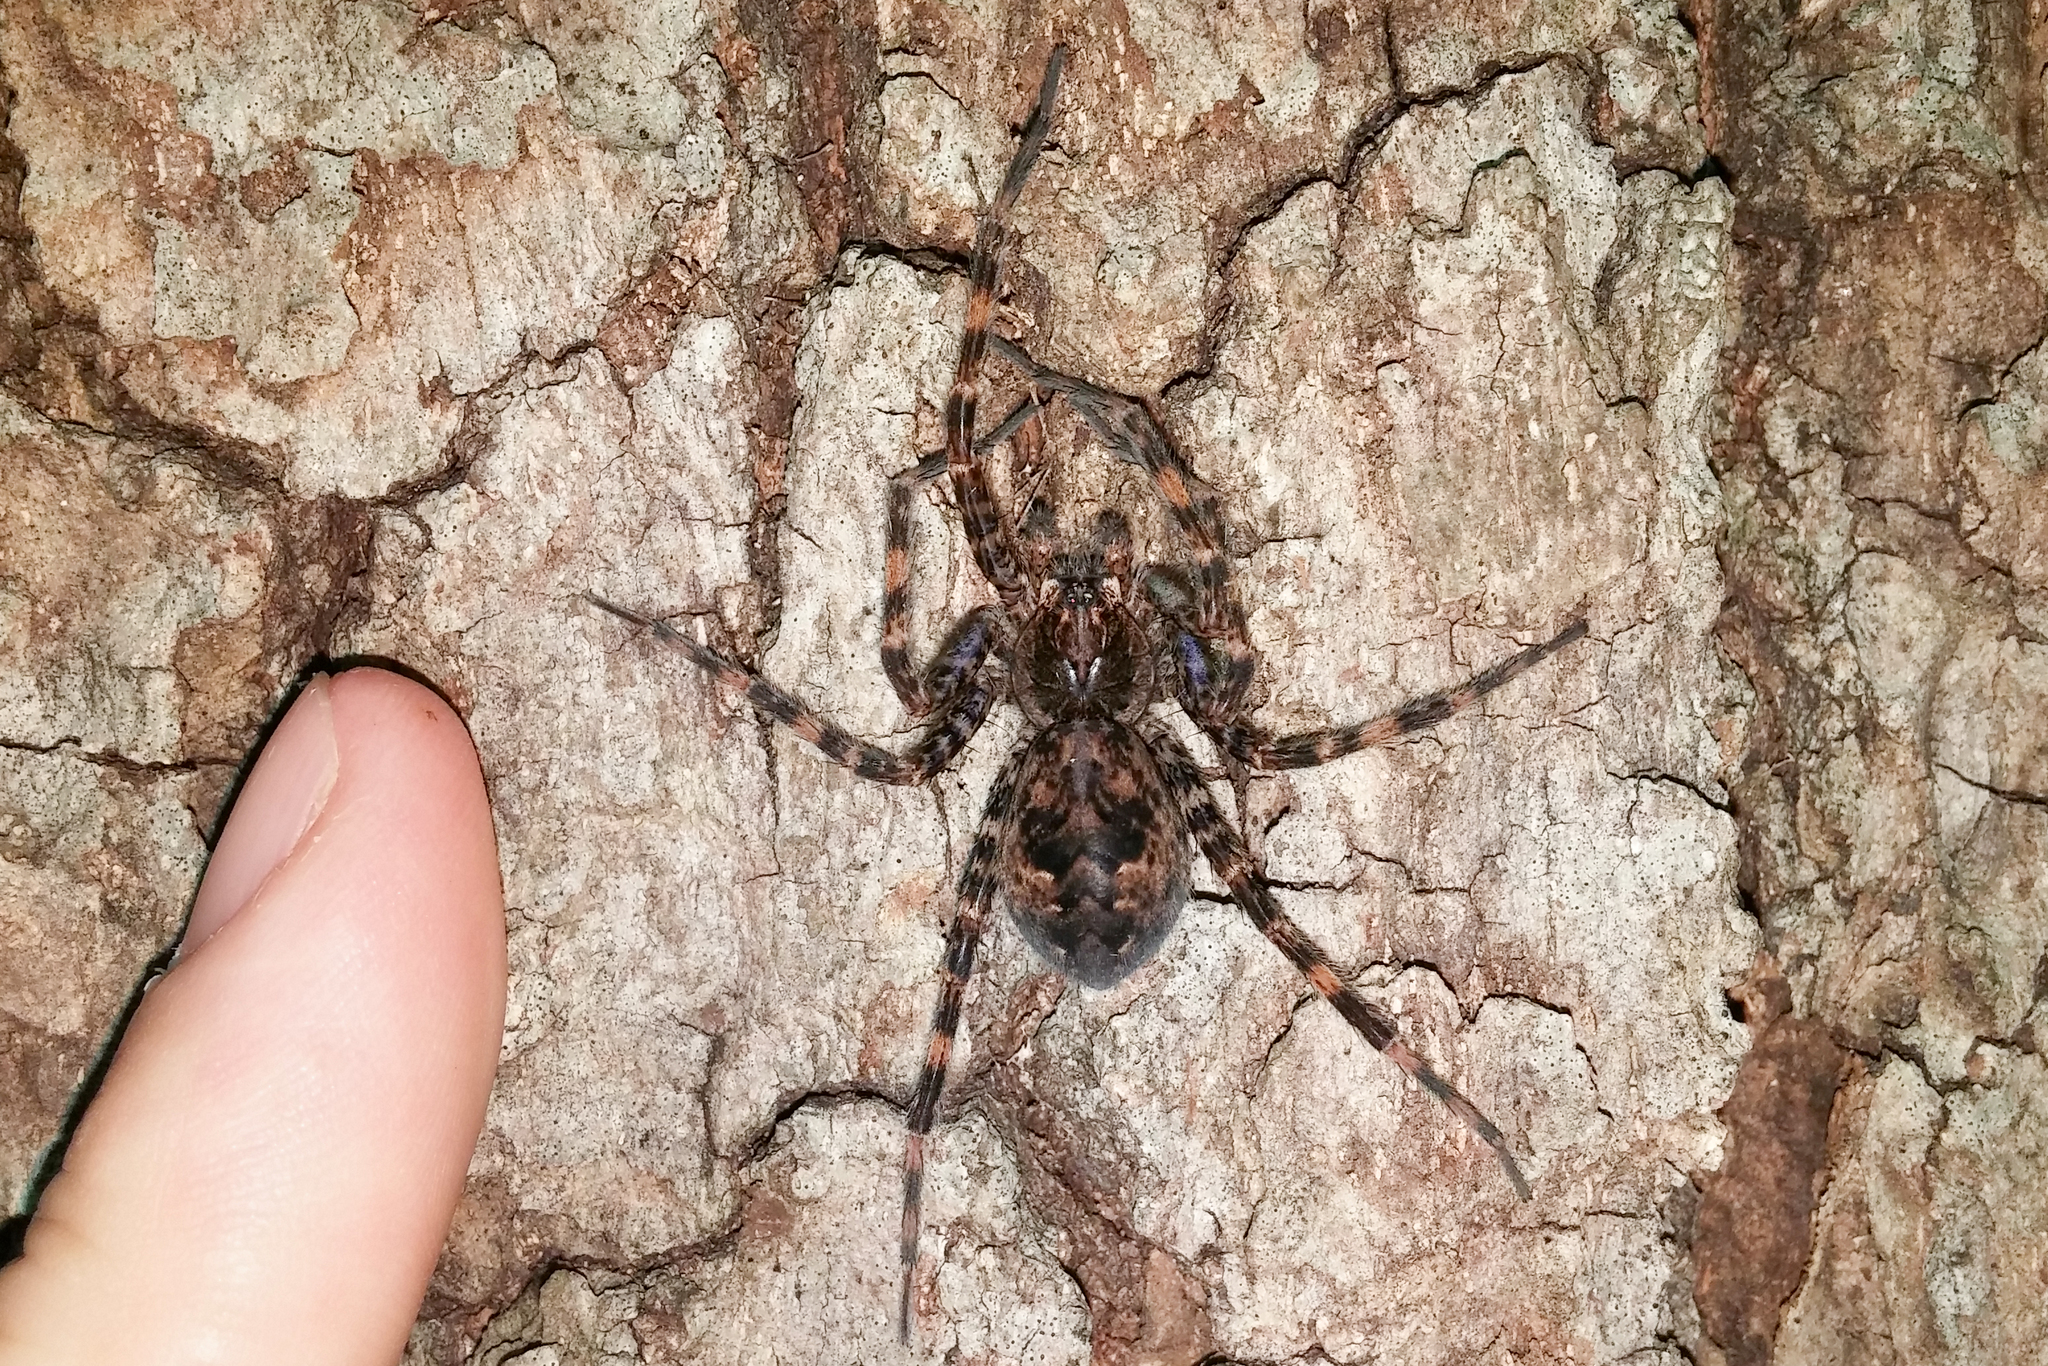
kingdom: Animalia
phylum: Arthropoda
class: Arachnida
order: Araneae
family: Pisauridae
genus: Dolomedes
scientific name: Dolomedes tenebrosus
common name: Dark fishing spider
